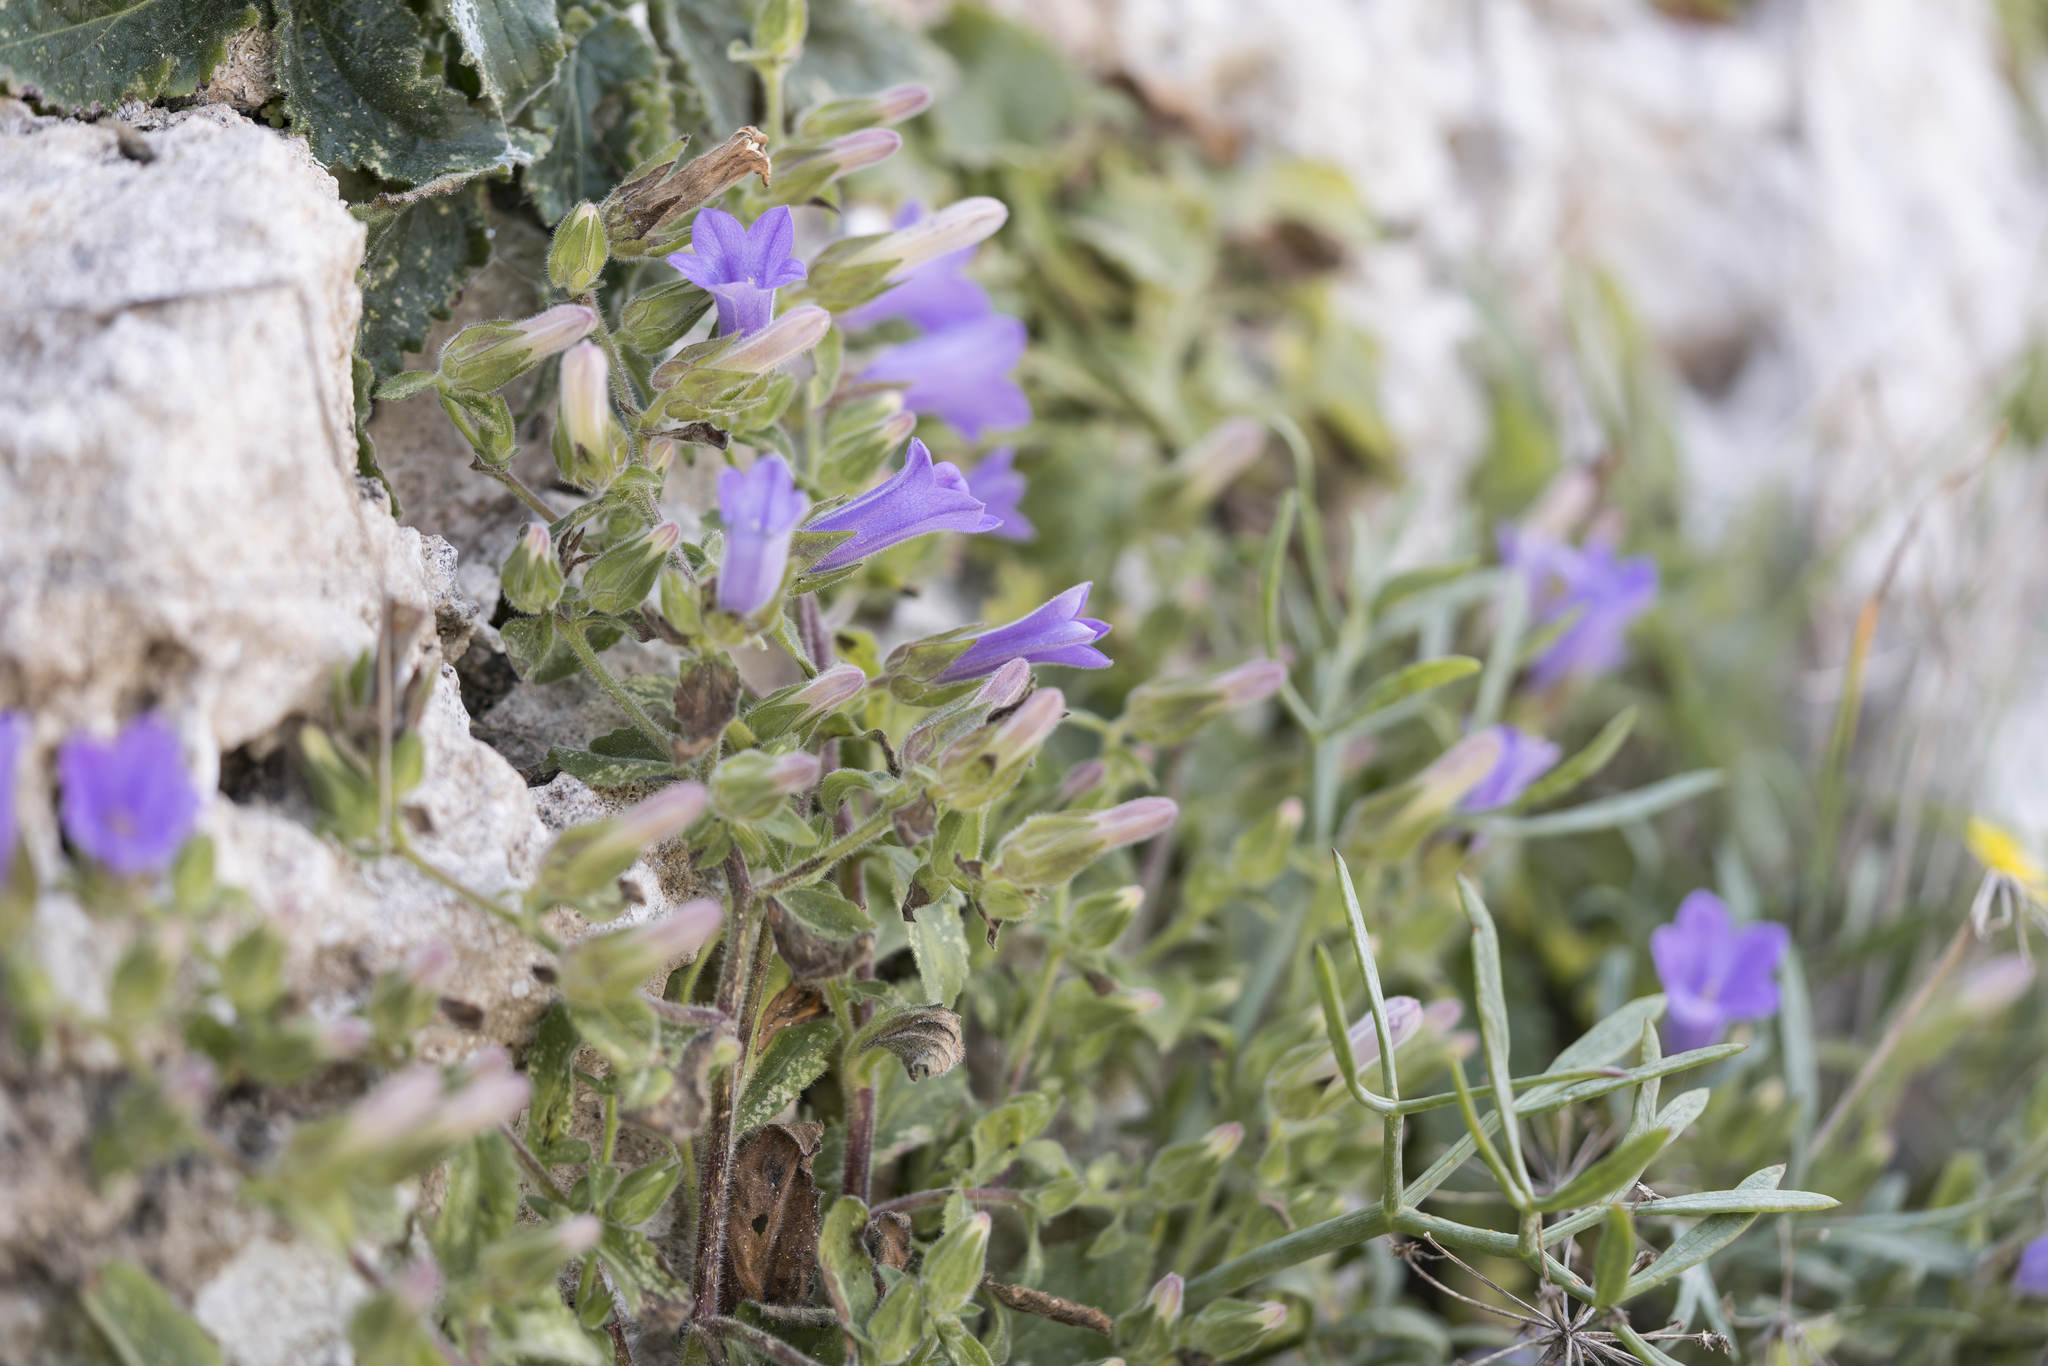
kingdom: Plantae
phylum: Tracheophyta
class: Magnoliopsida
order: Asterales
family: Campanulaceae
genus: Campanula
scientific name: Campanula hagielia
